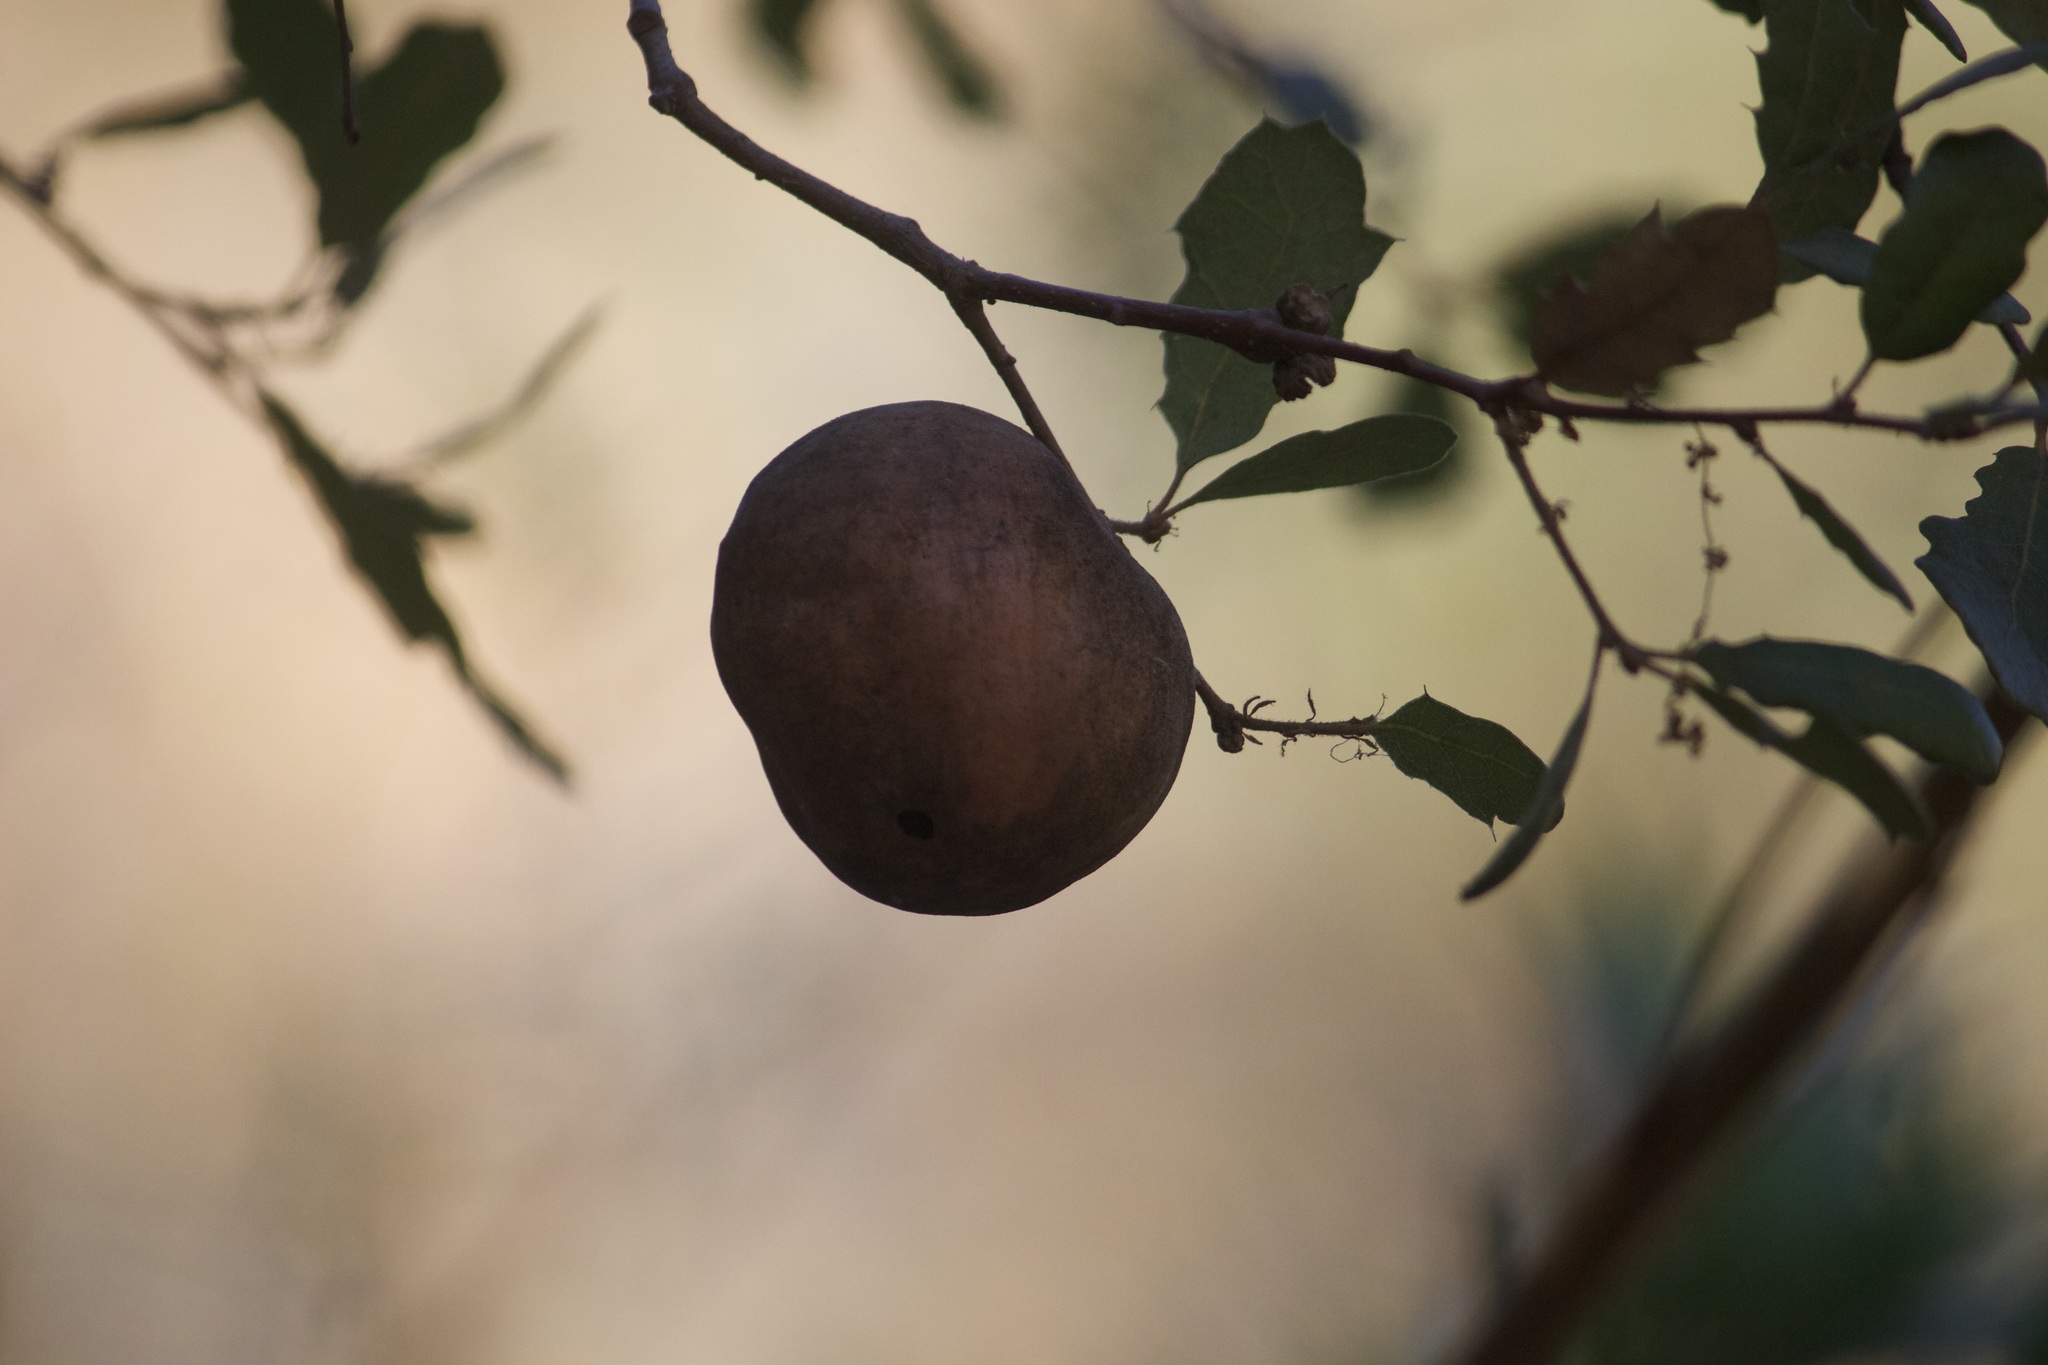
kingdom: Animalia
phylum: Arthropoda
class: Insecta
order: Hymenoptera
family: Cynipidae
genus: Andricus
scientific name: Andricus quercuscalifornicus
